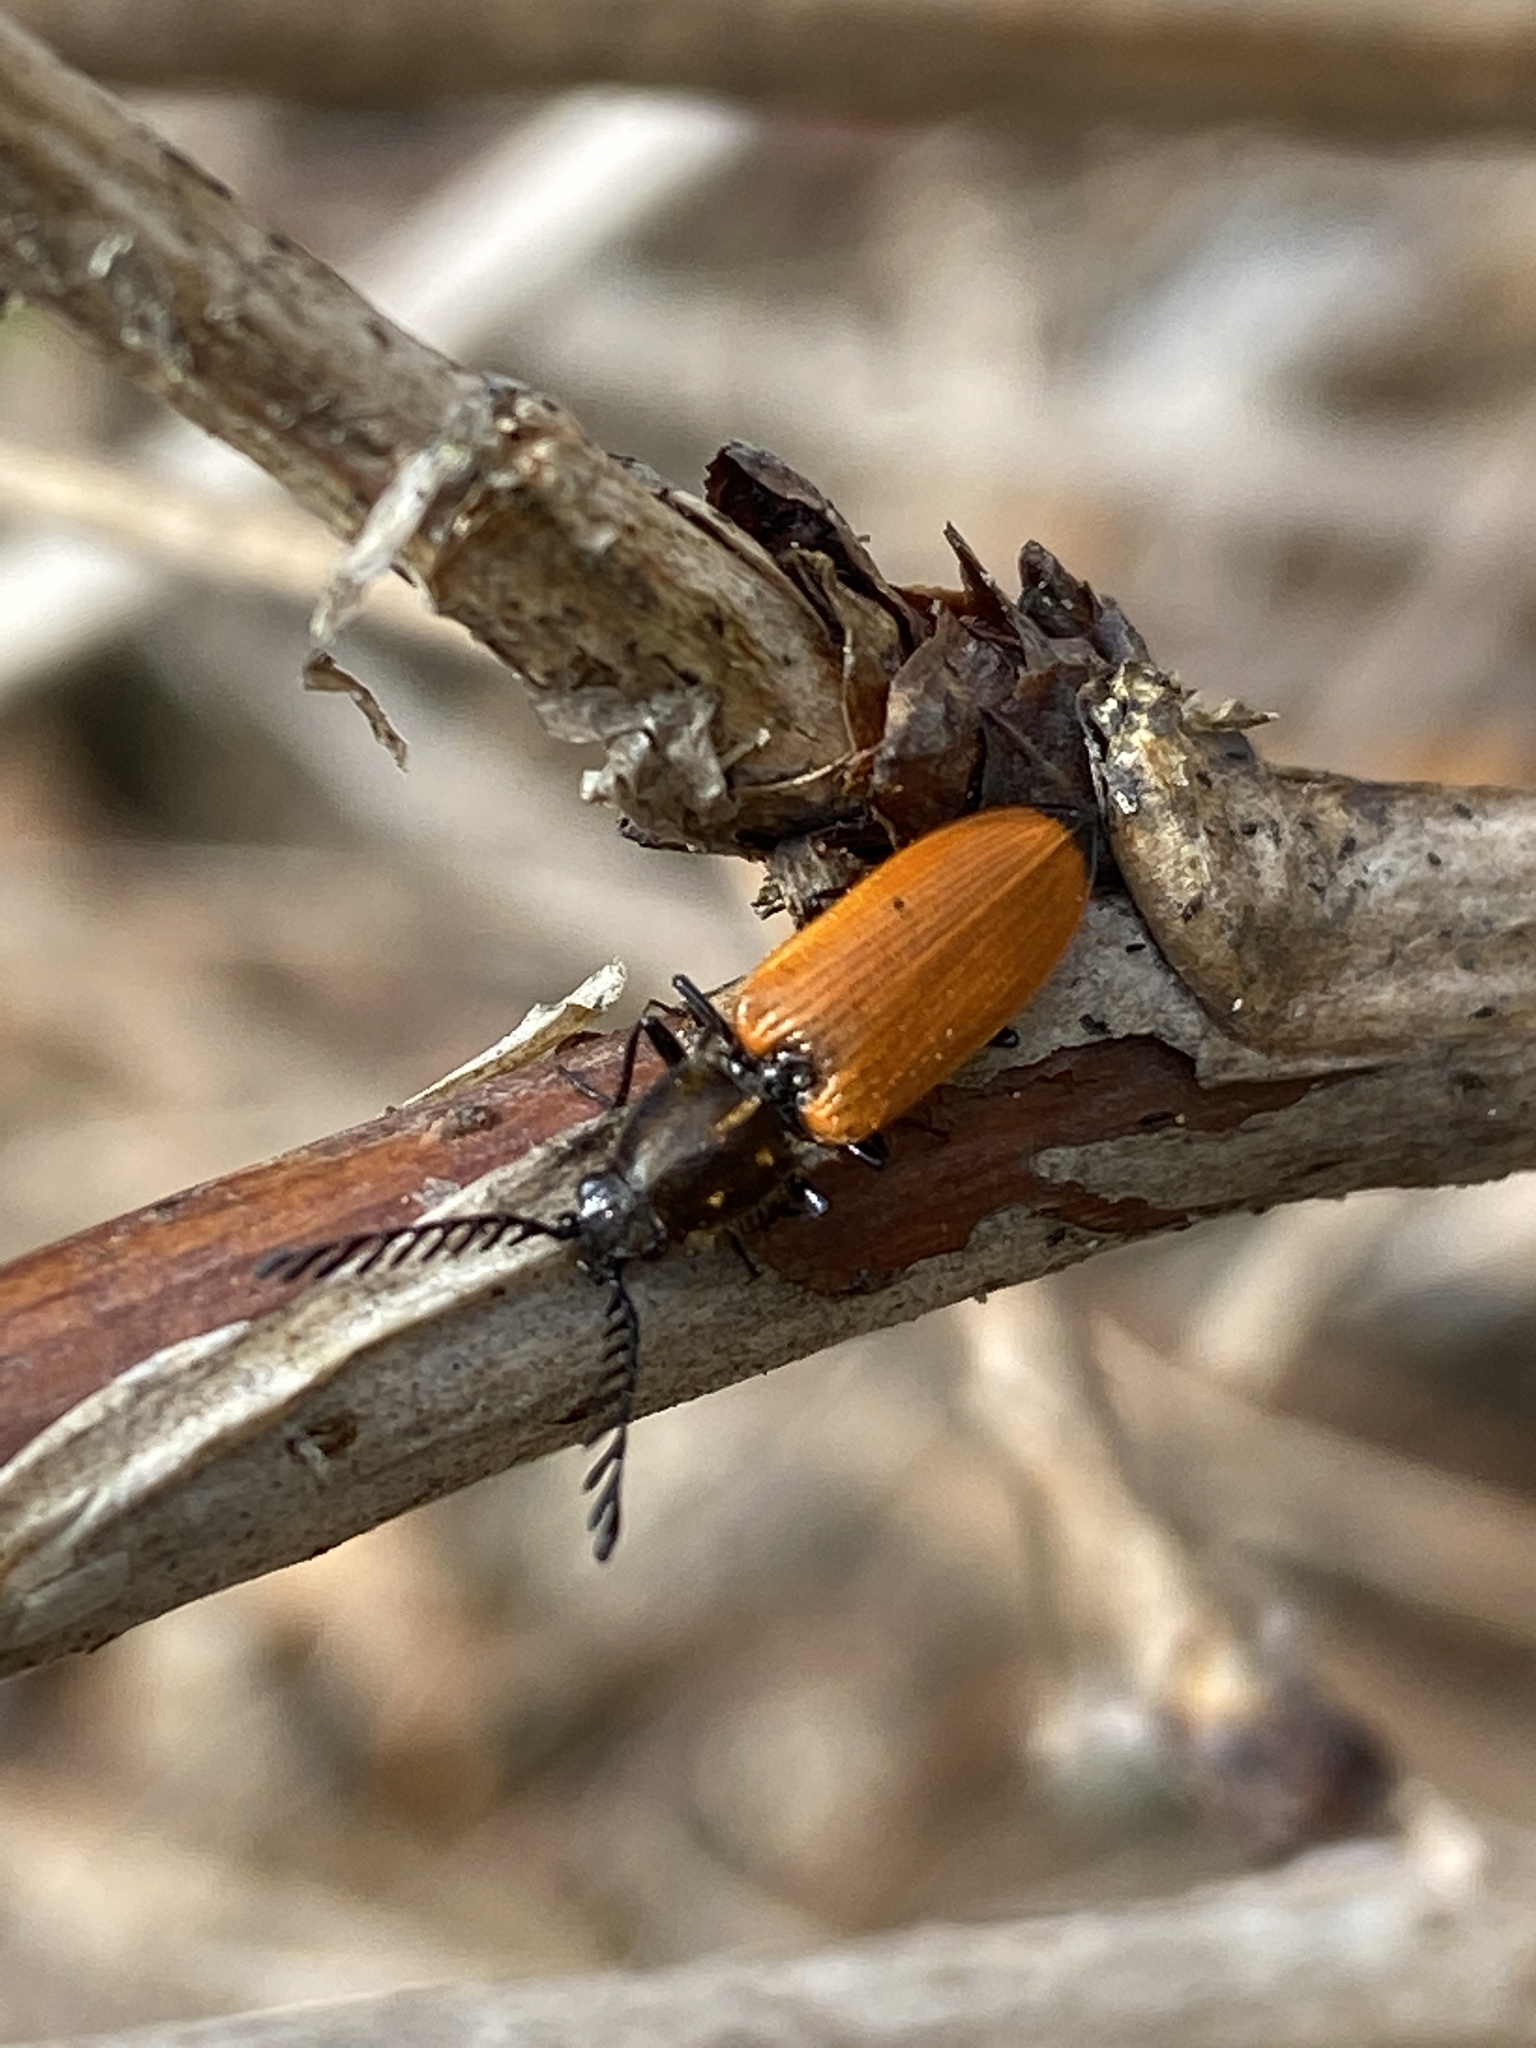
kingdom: Animalia
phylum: Arthropoda
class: Insecta
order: Coleoptera
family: Elateridae
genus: Anostirus
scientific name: Anostirus castaneus
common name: Chestnut coloured click beetle
